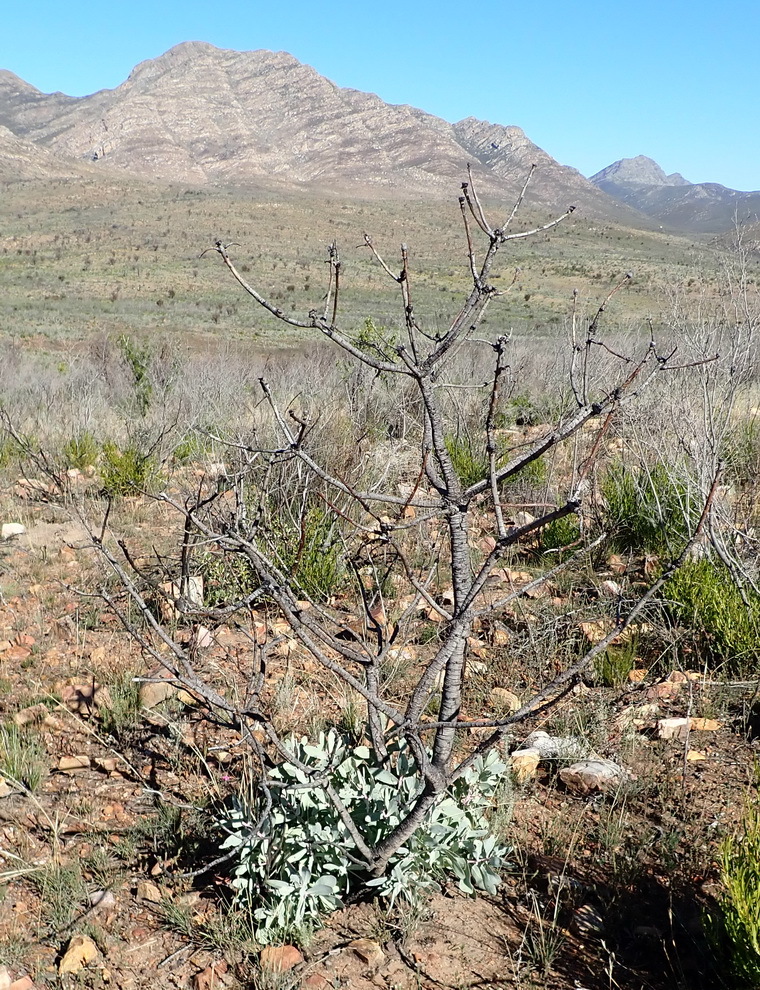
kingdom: Plantae
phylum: Tracheophyta
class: Magnoliopsida
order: Proteales
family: Proteaceae
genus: Protea
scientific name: Protea nitida
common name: Tree protea
